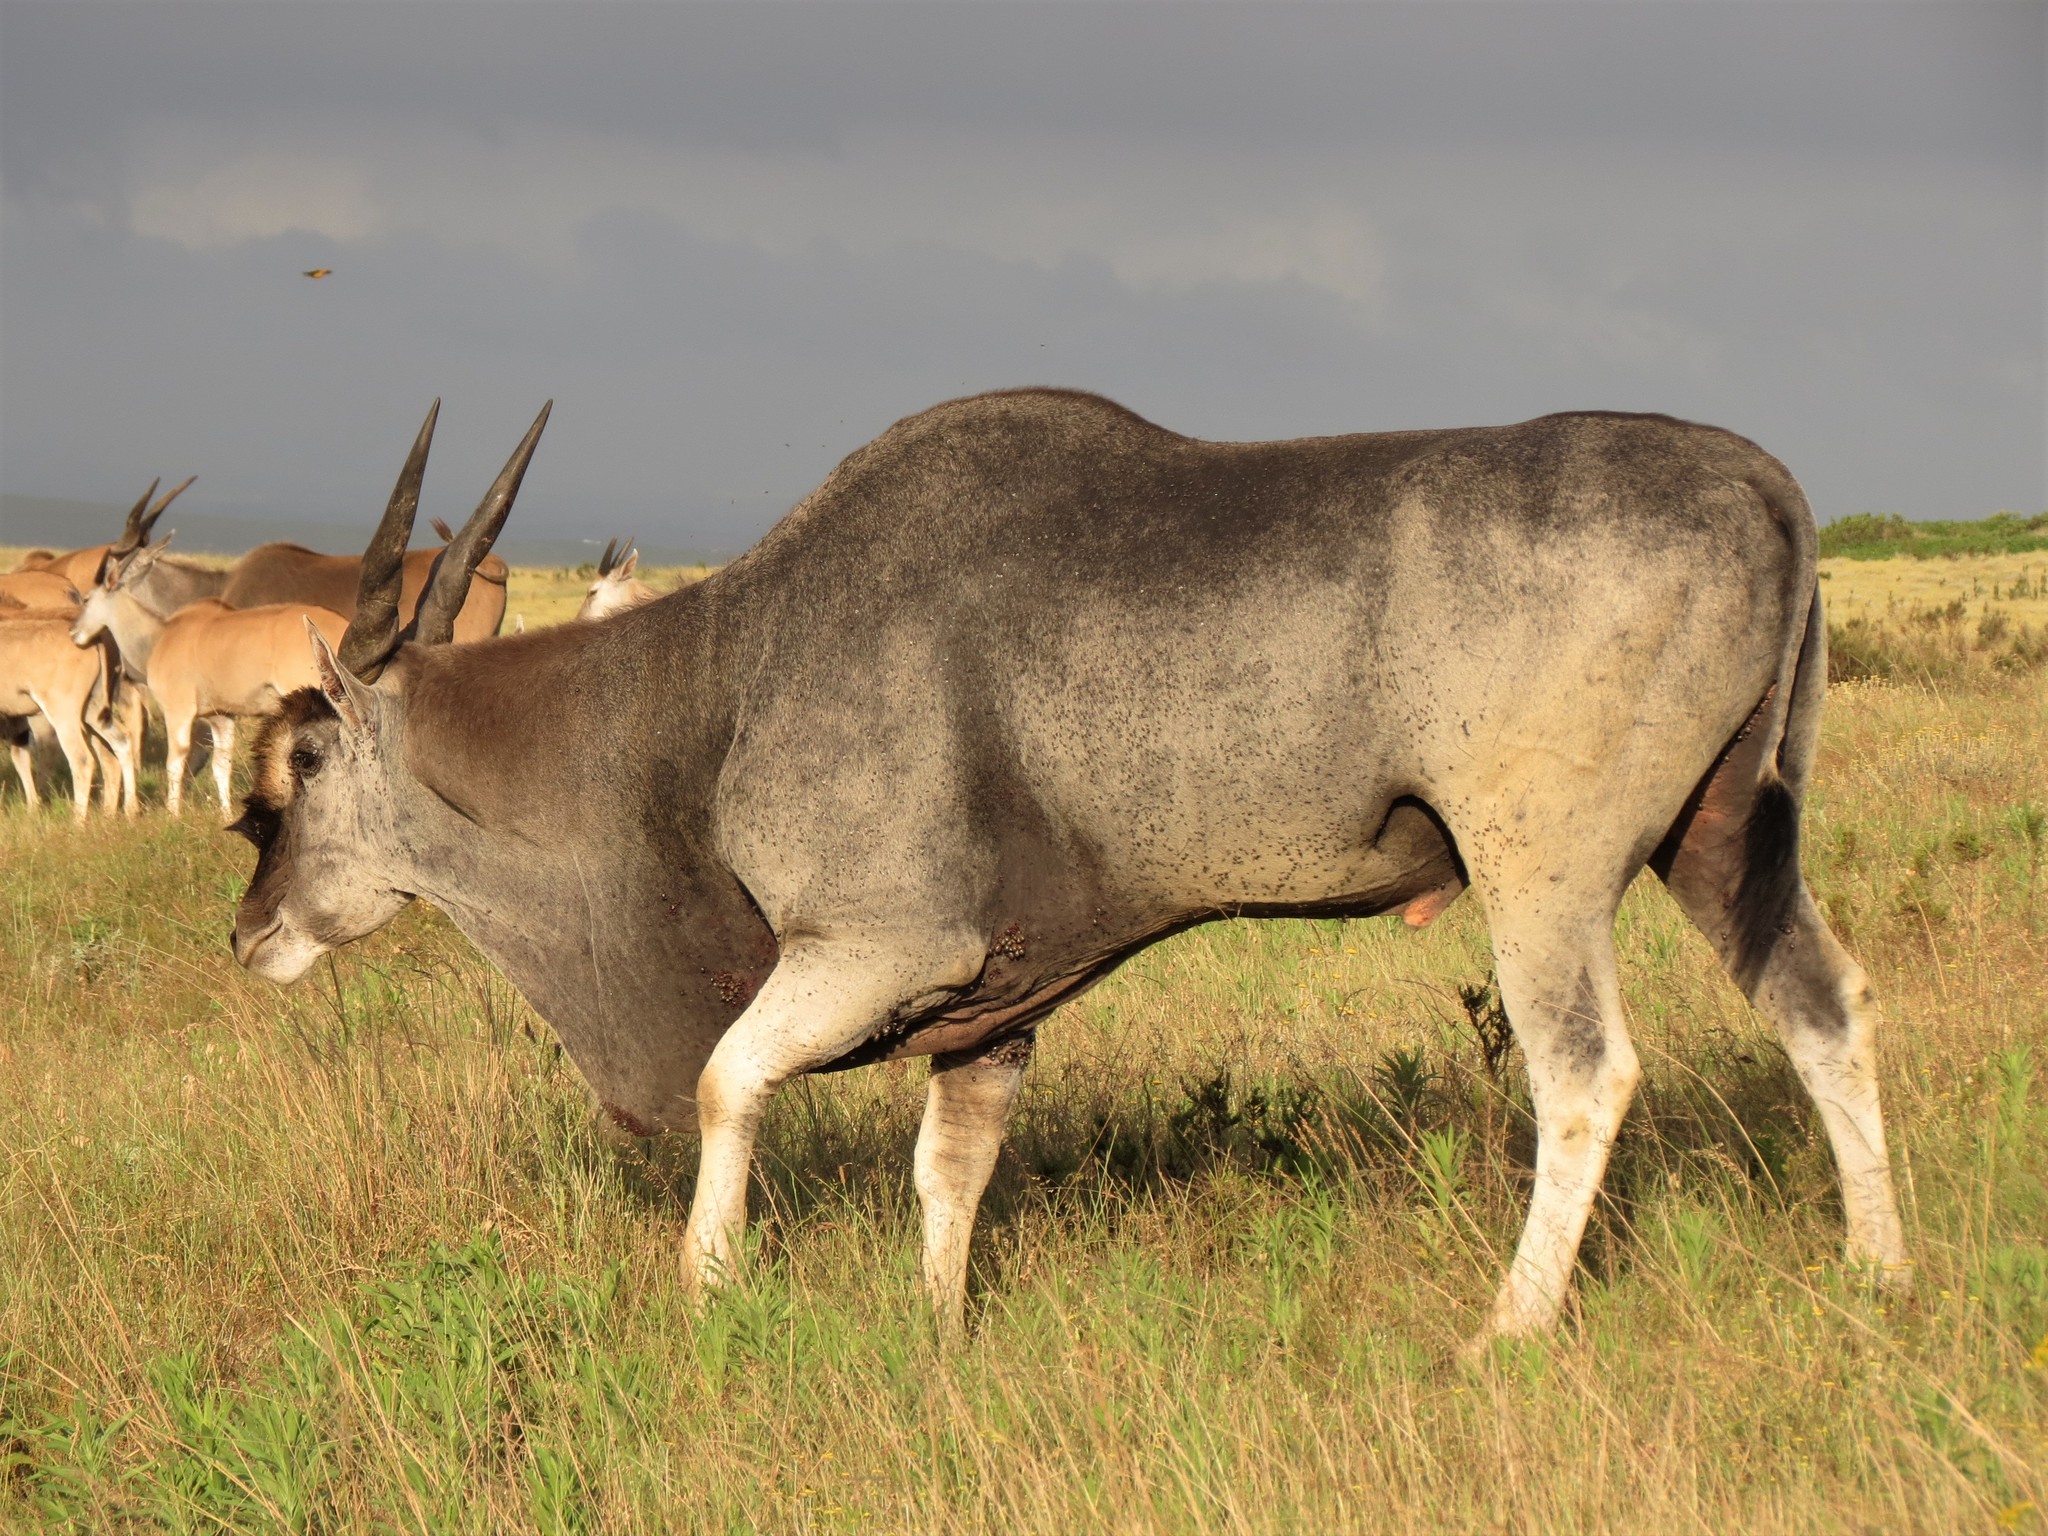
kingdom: Animalia
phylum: Chordata
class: Mammalia
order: Artiodactyla
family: Bovidae
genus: Taurotragus
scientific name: Taurotragus oryx
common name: Common eland
